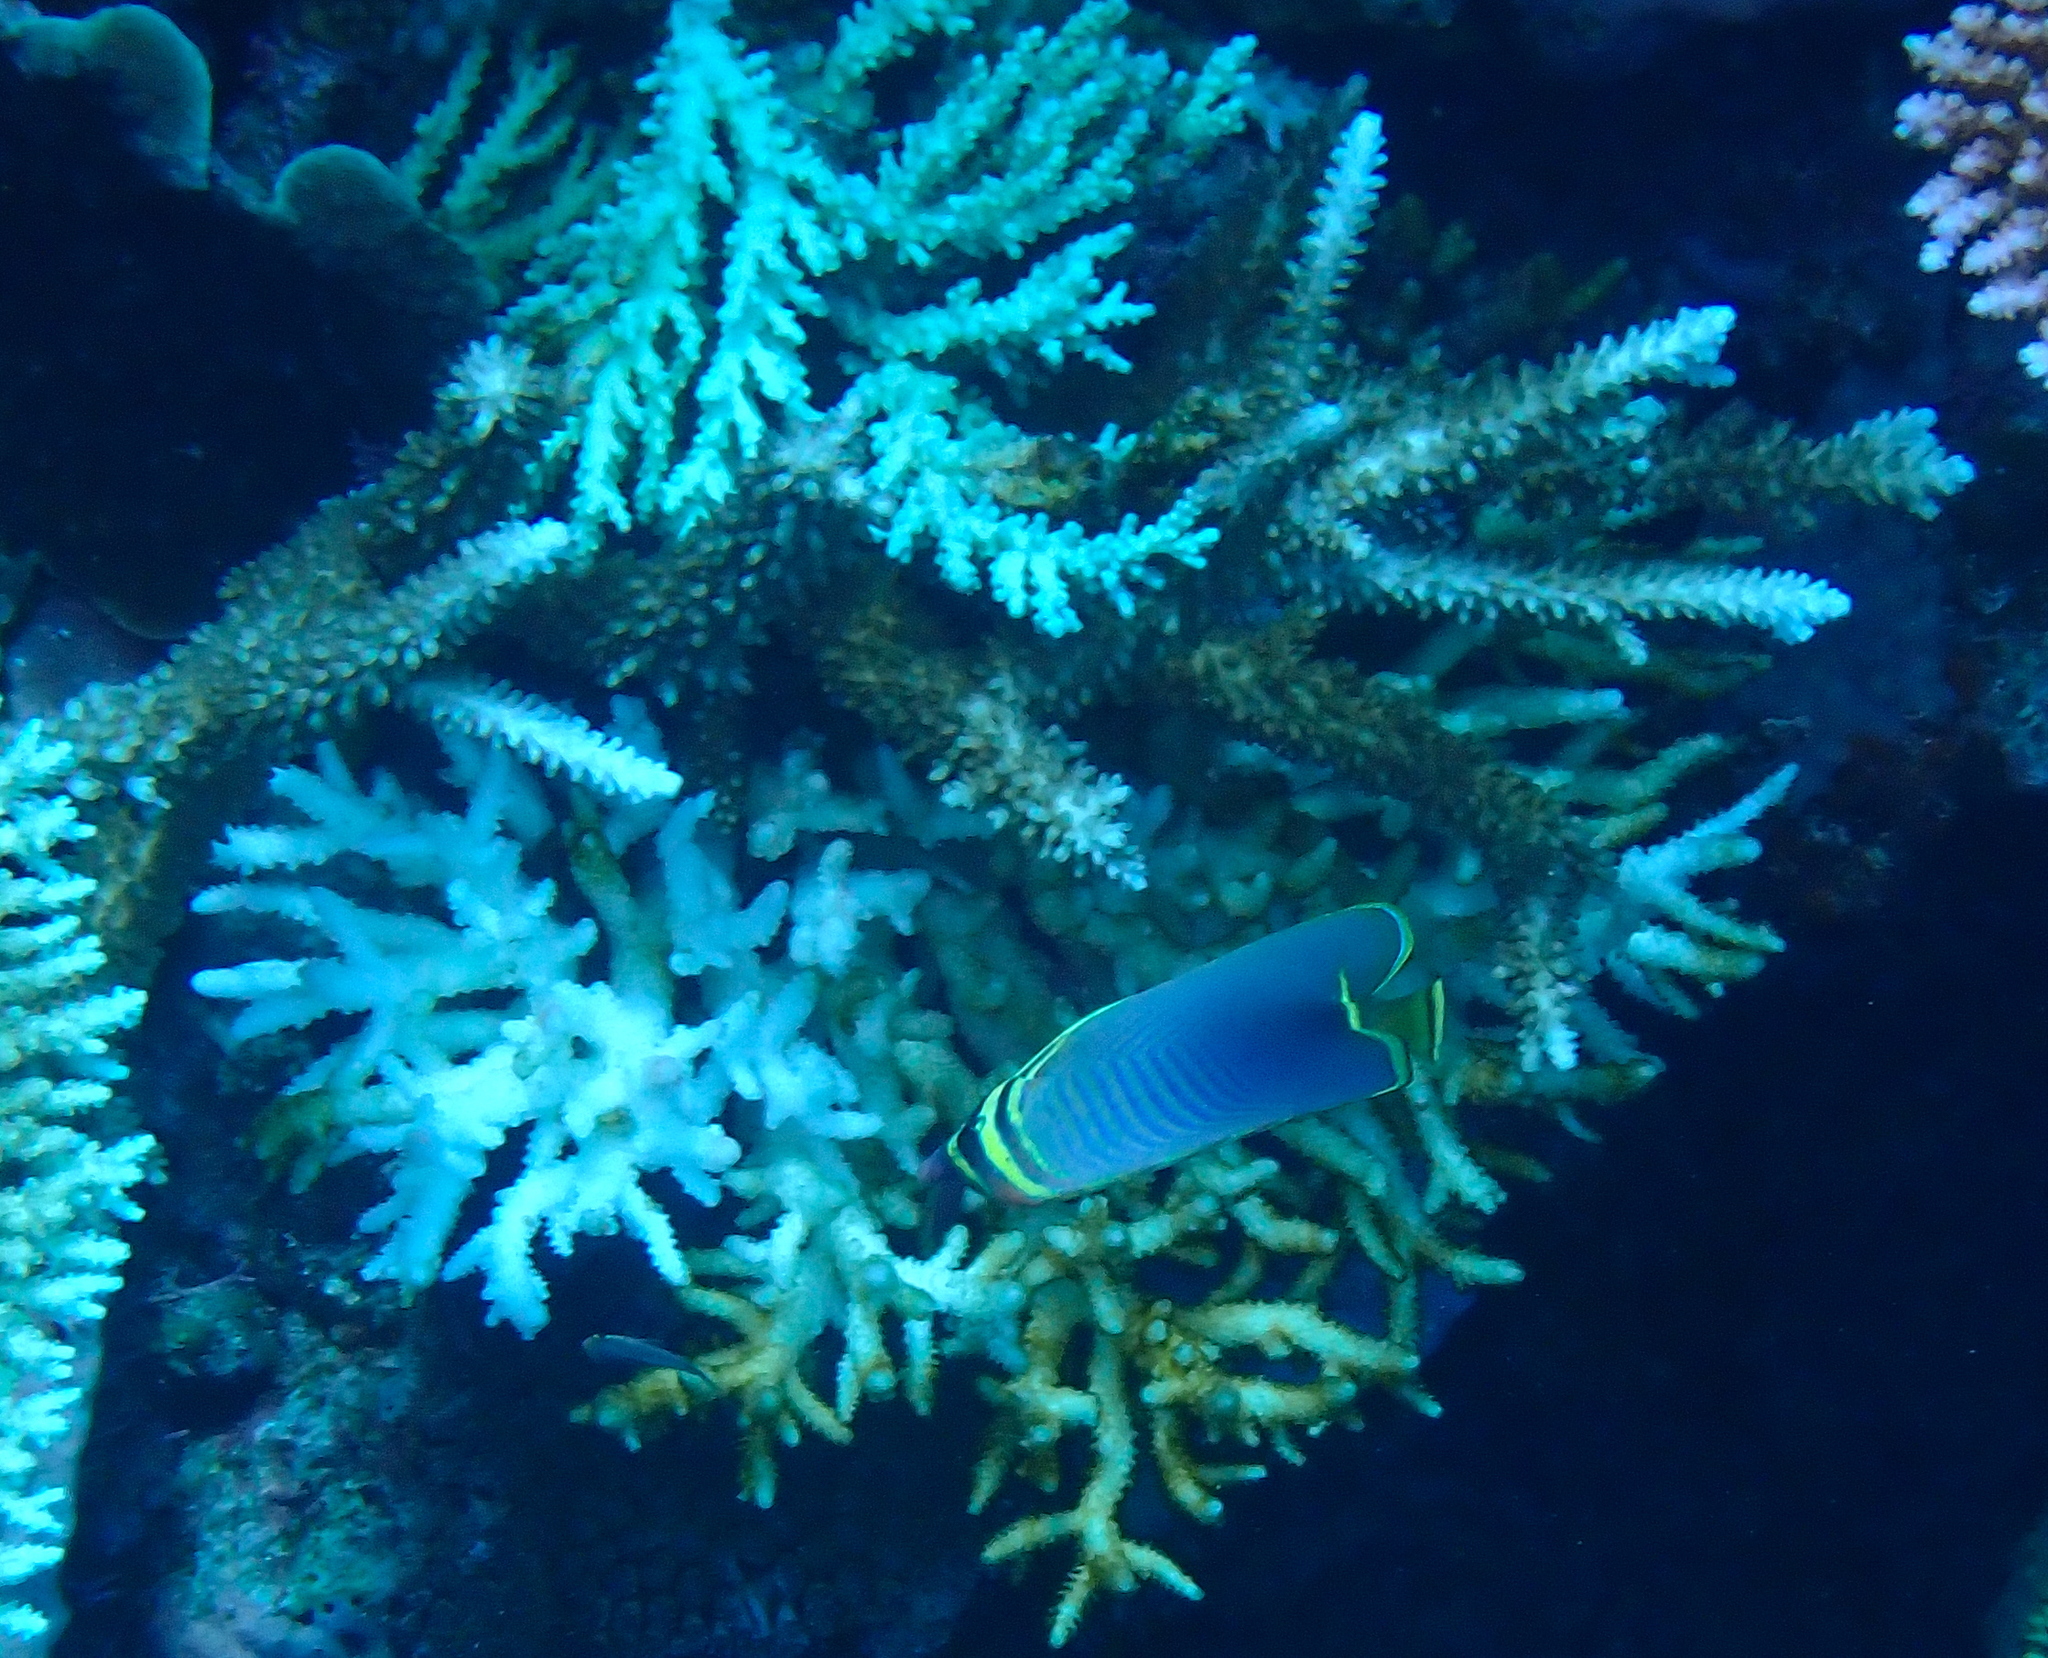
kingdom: Animalia
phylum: Chordata
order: Perciformes
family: Chaetodontidae
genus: Chaetodon
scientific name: Chaetodon baronessa
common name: Triangular butterflyfish
